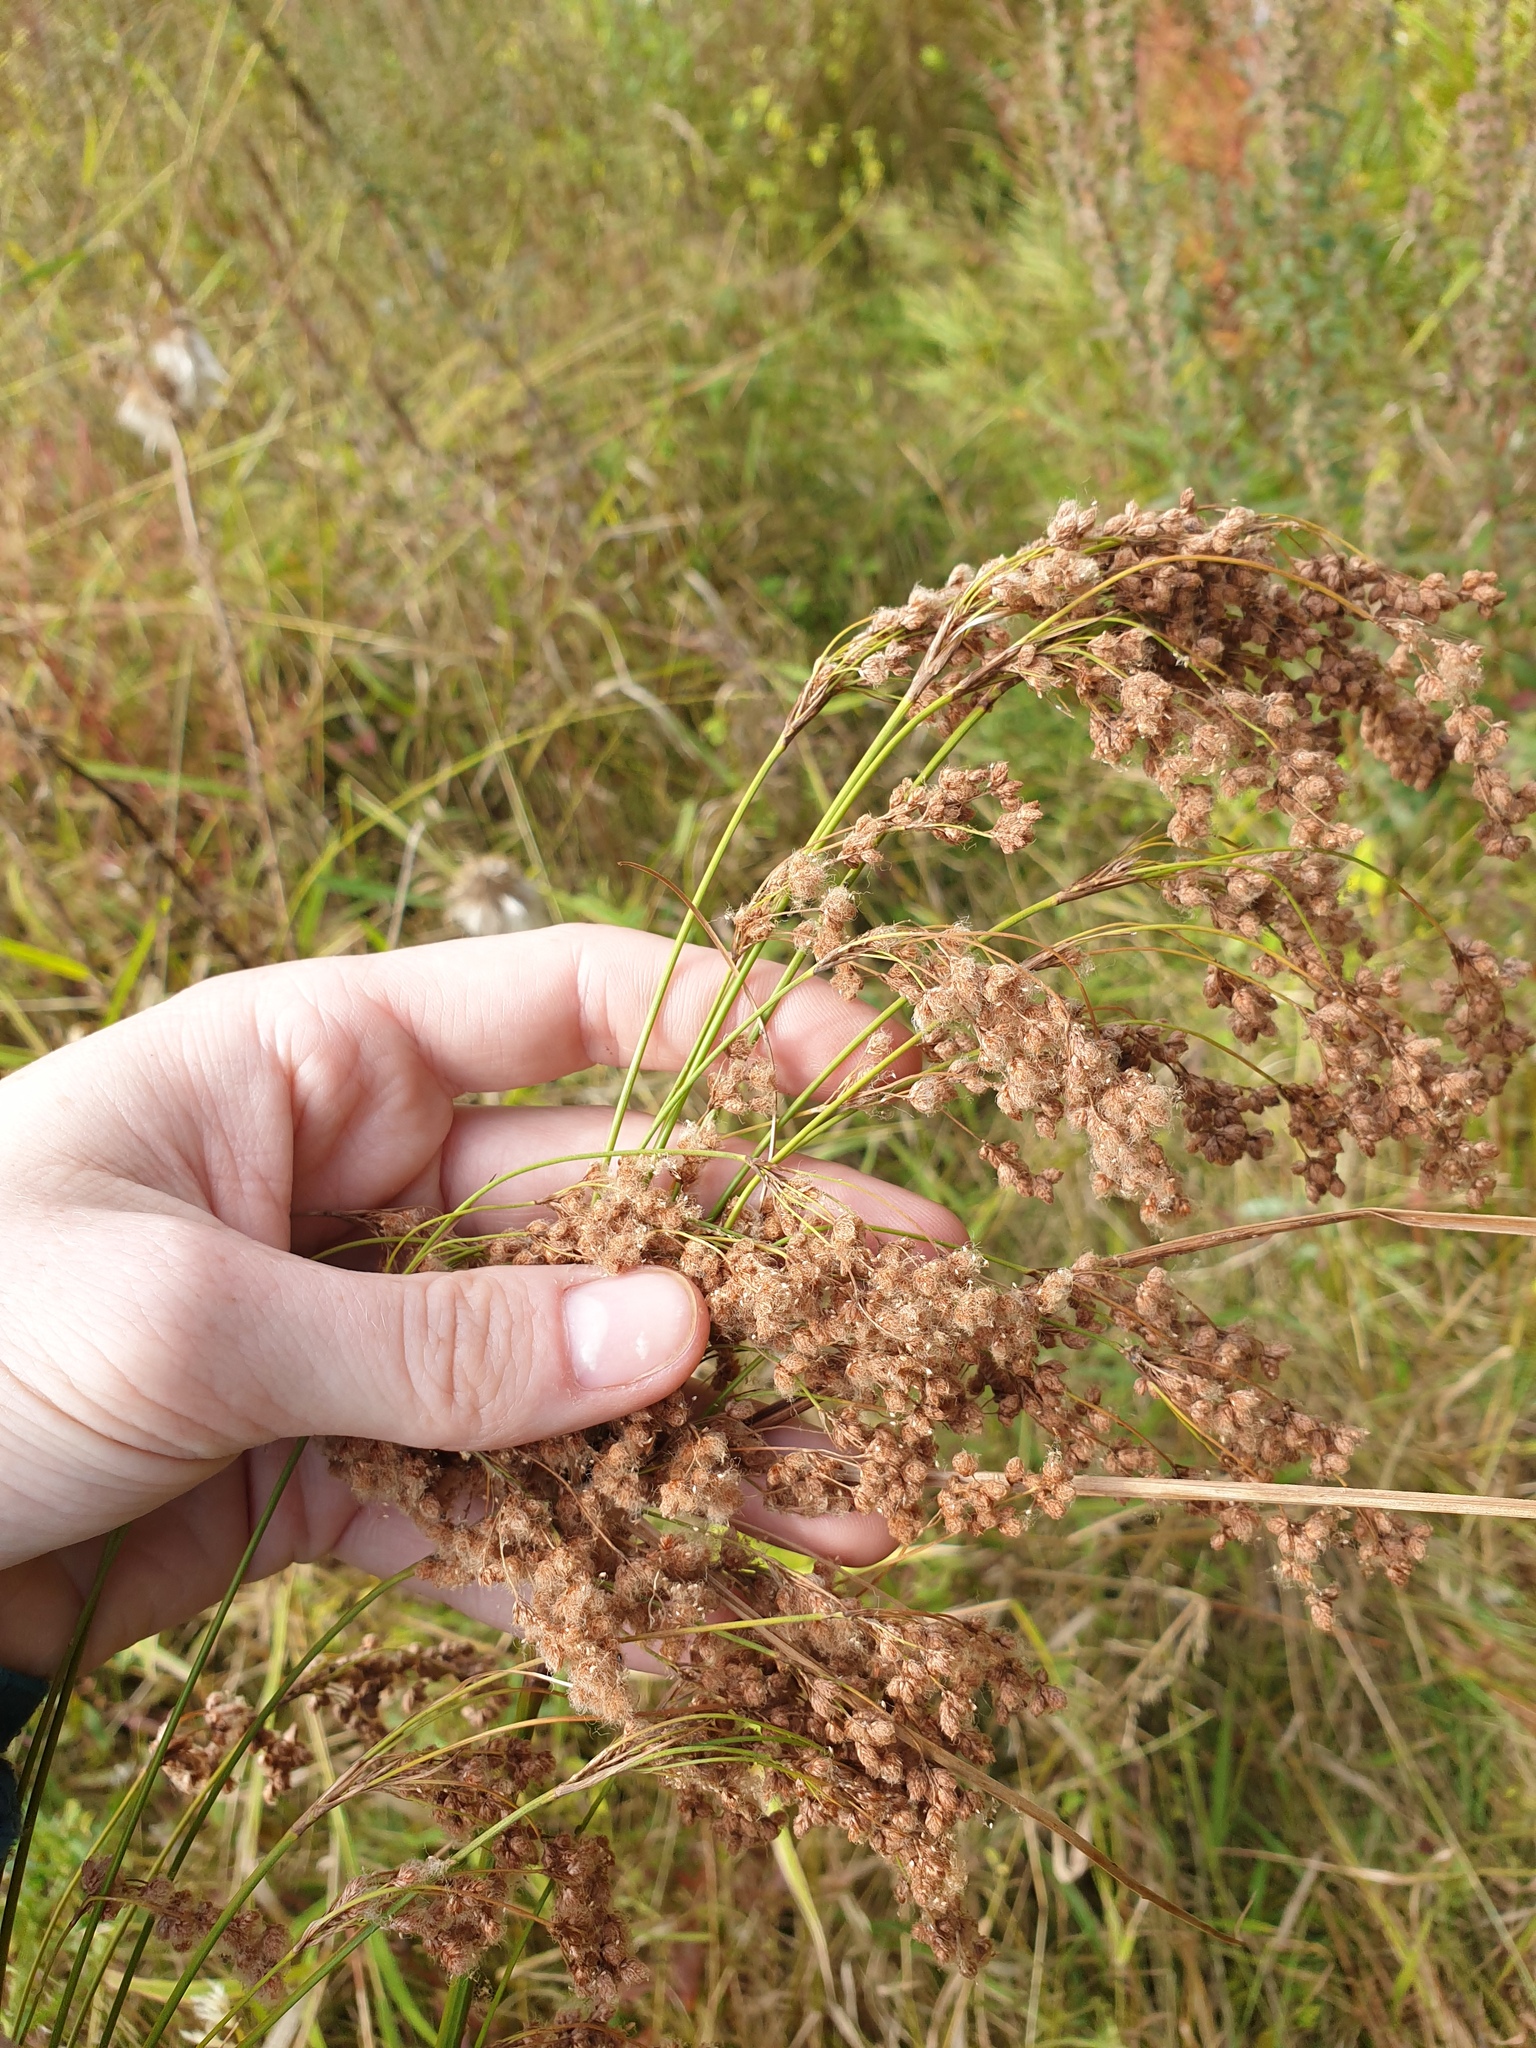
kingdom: Plantae
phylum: Tracheophyta
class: Liliopsida
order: Poales
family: Cyperaceae
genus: Scirpus
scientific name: Scirpus cyperinus
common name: Black-sheathed bulrush
